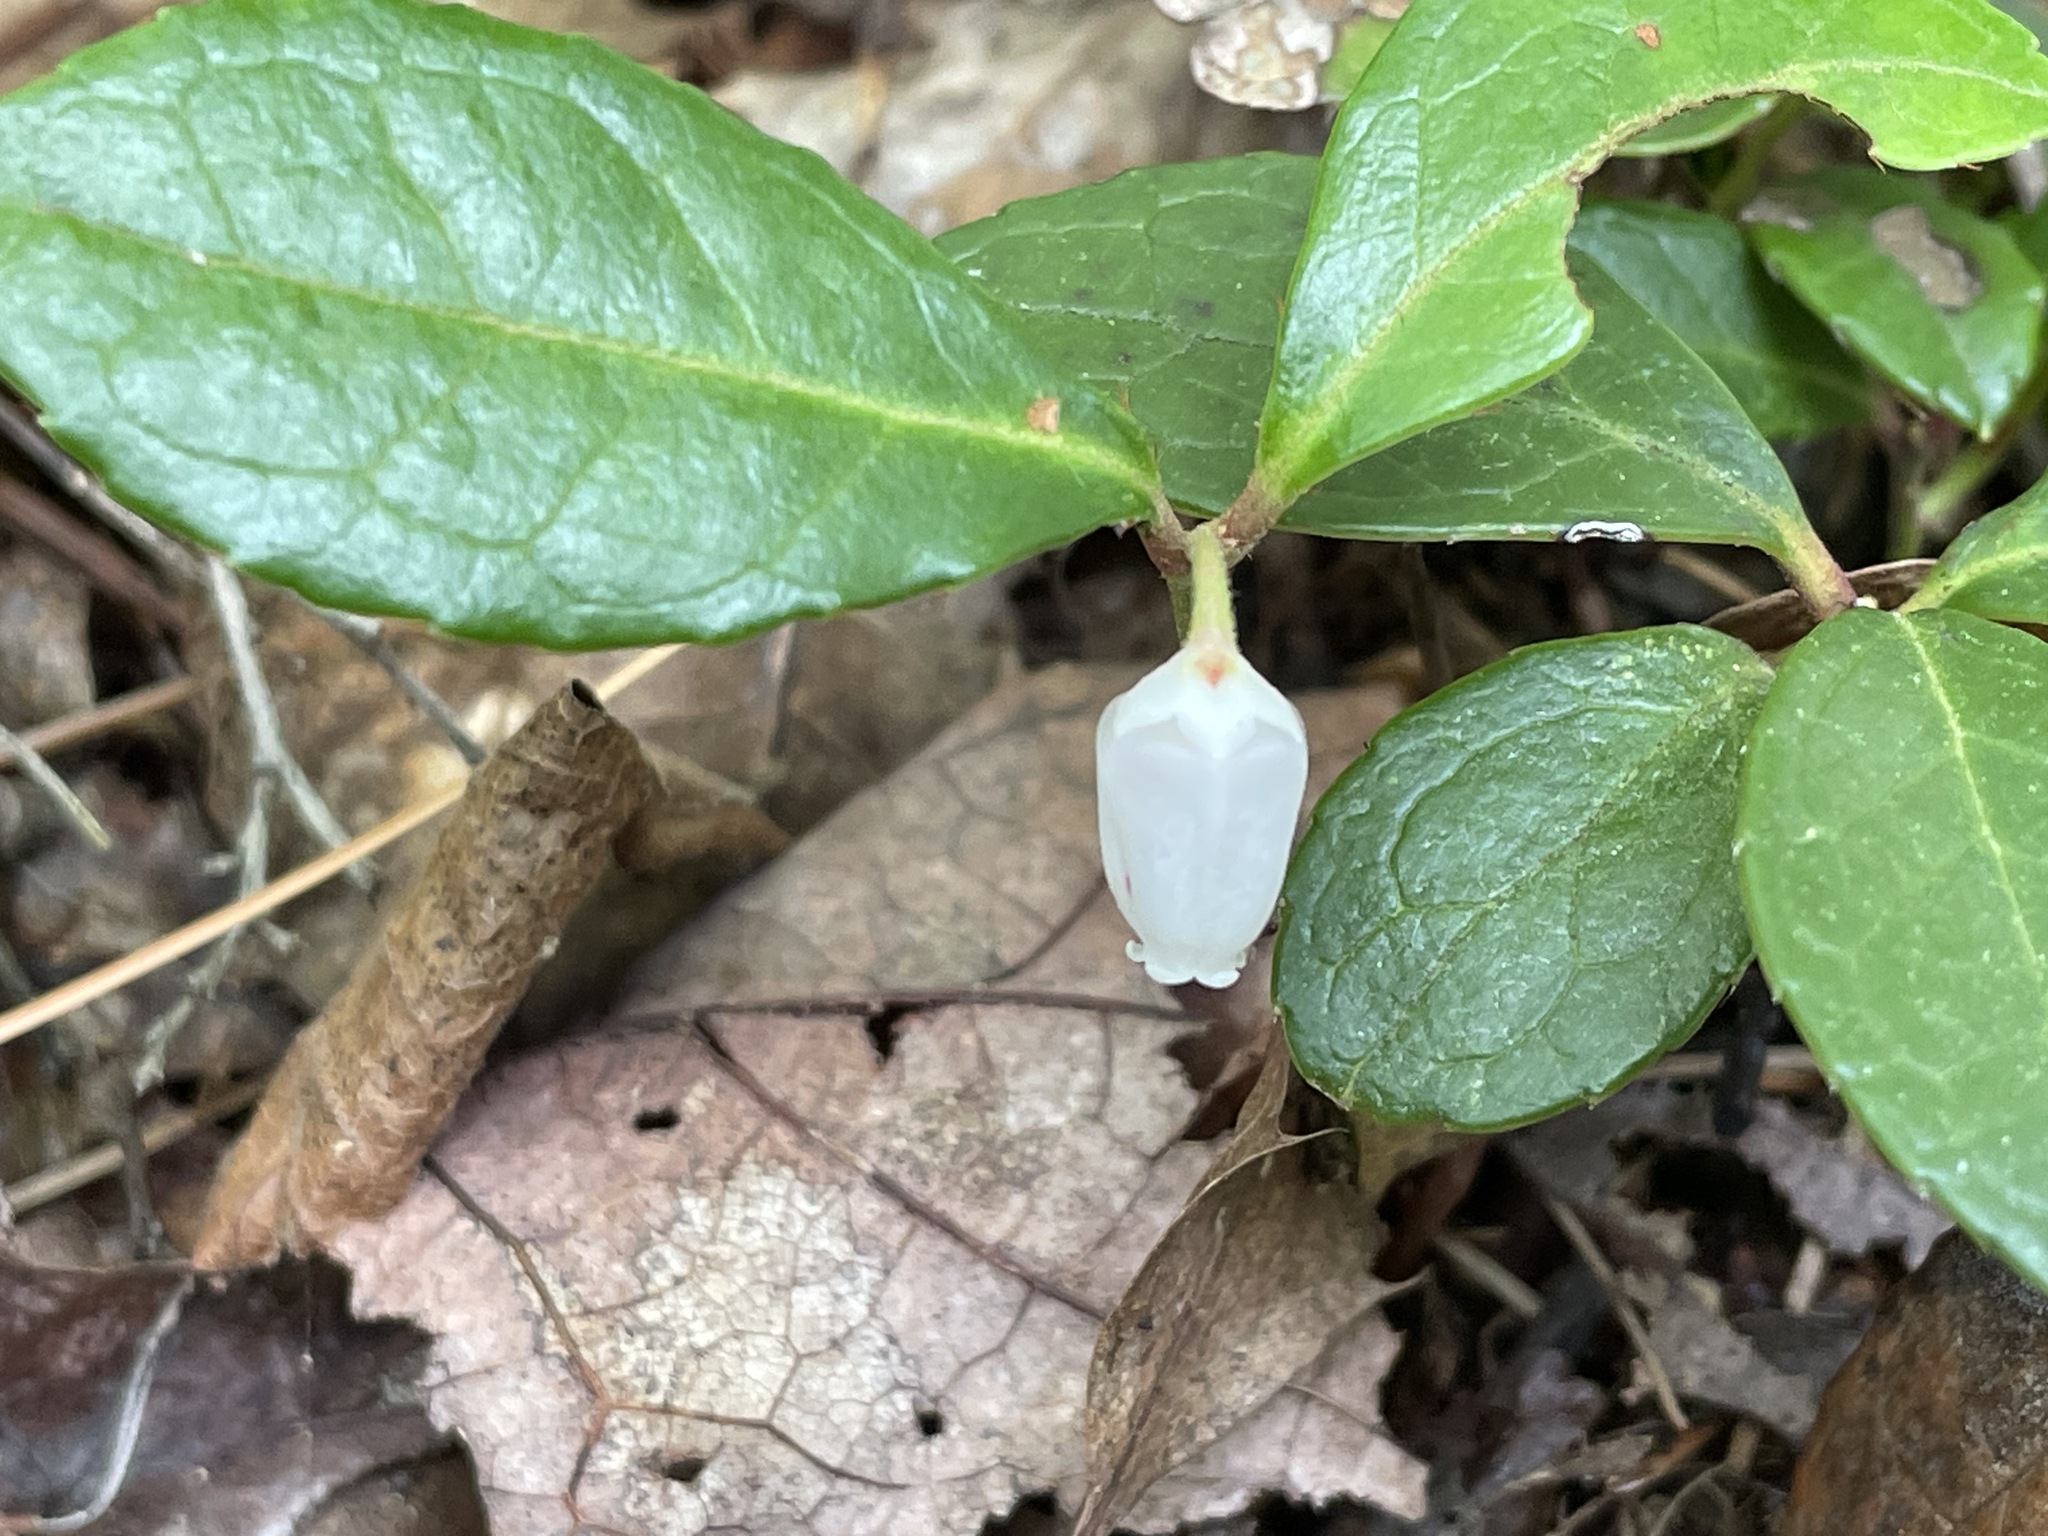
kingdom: Plantae
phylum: Tracheophyta
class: Magnoliopsida
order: Ericales
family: Ericaceae
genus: Gaultheria
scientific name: Gaultheria procumbens
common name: Checkerberry
